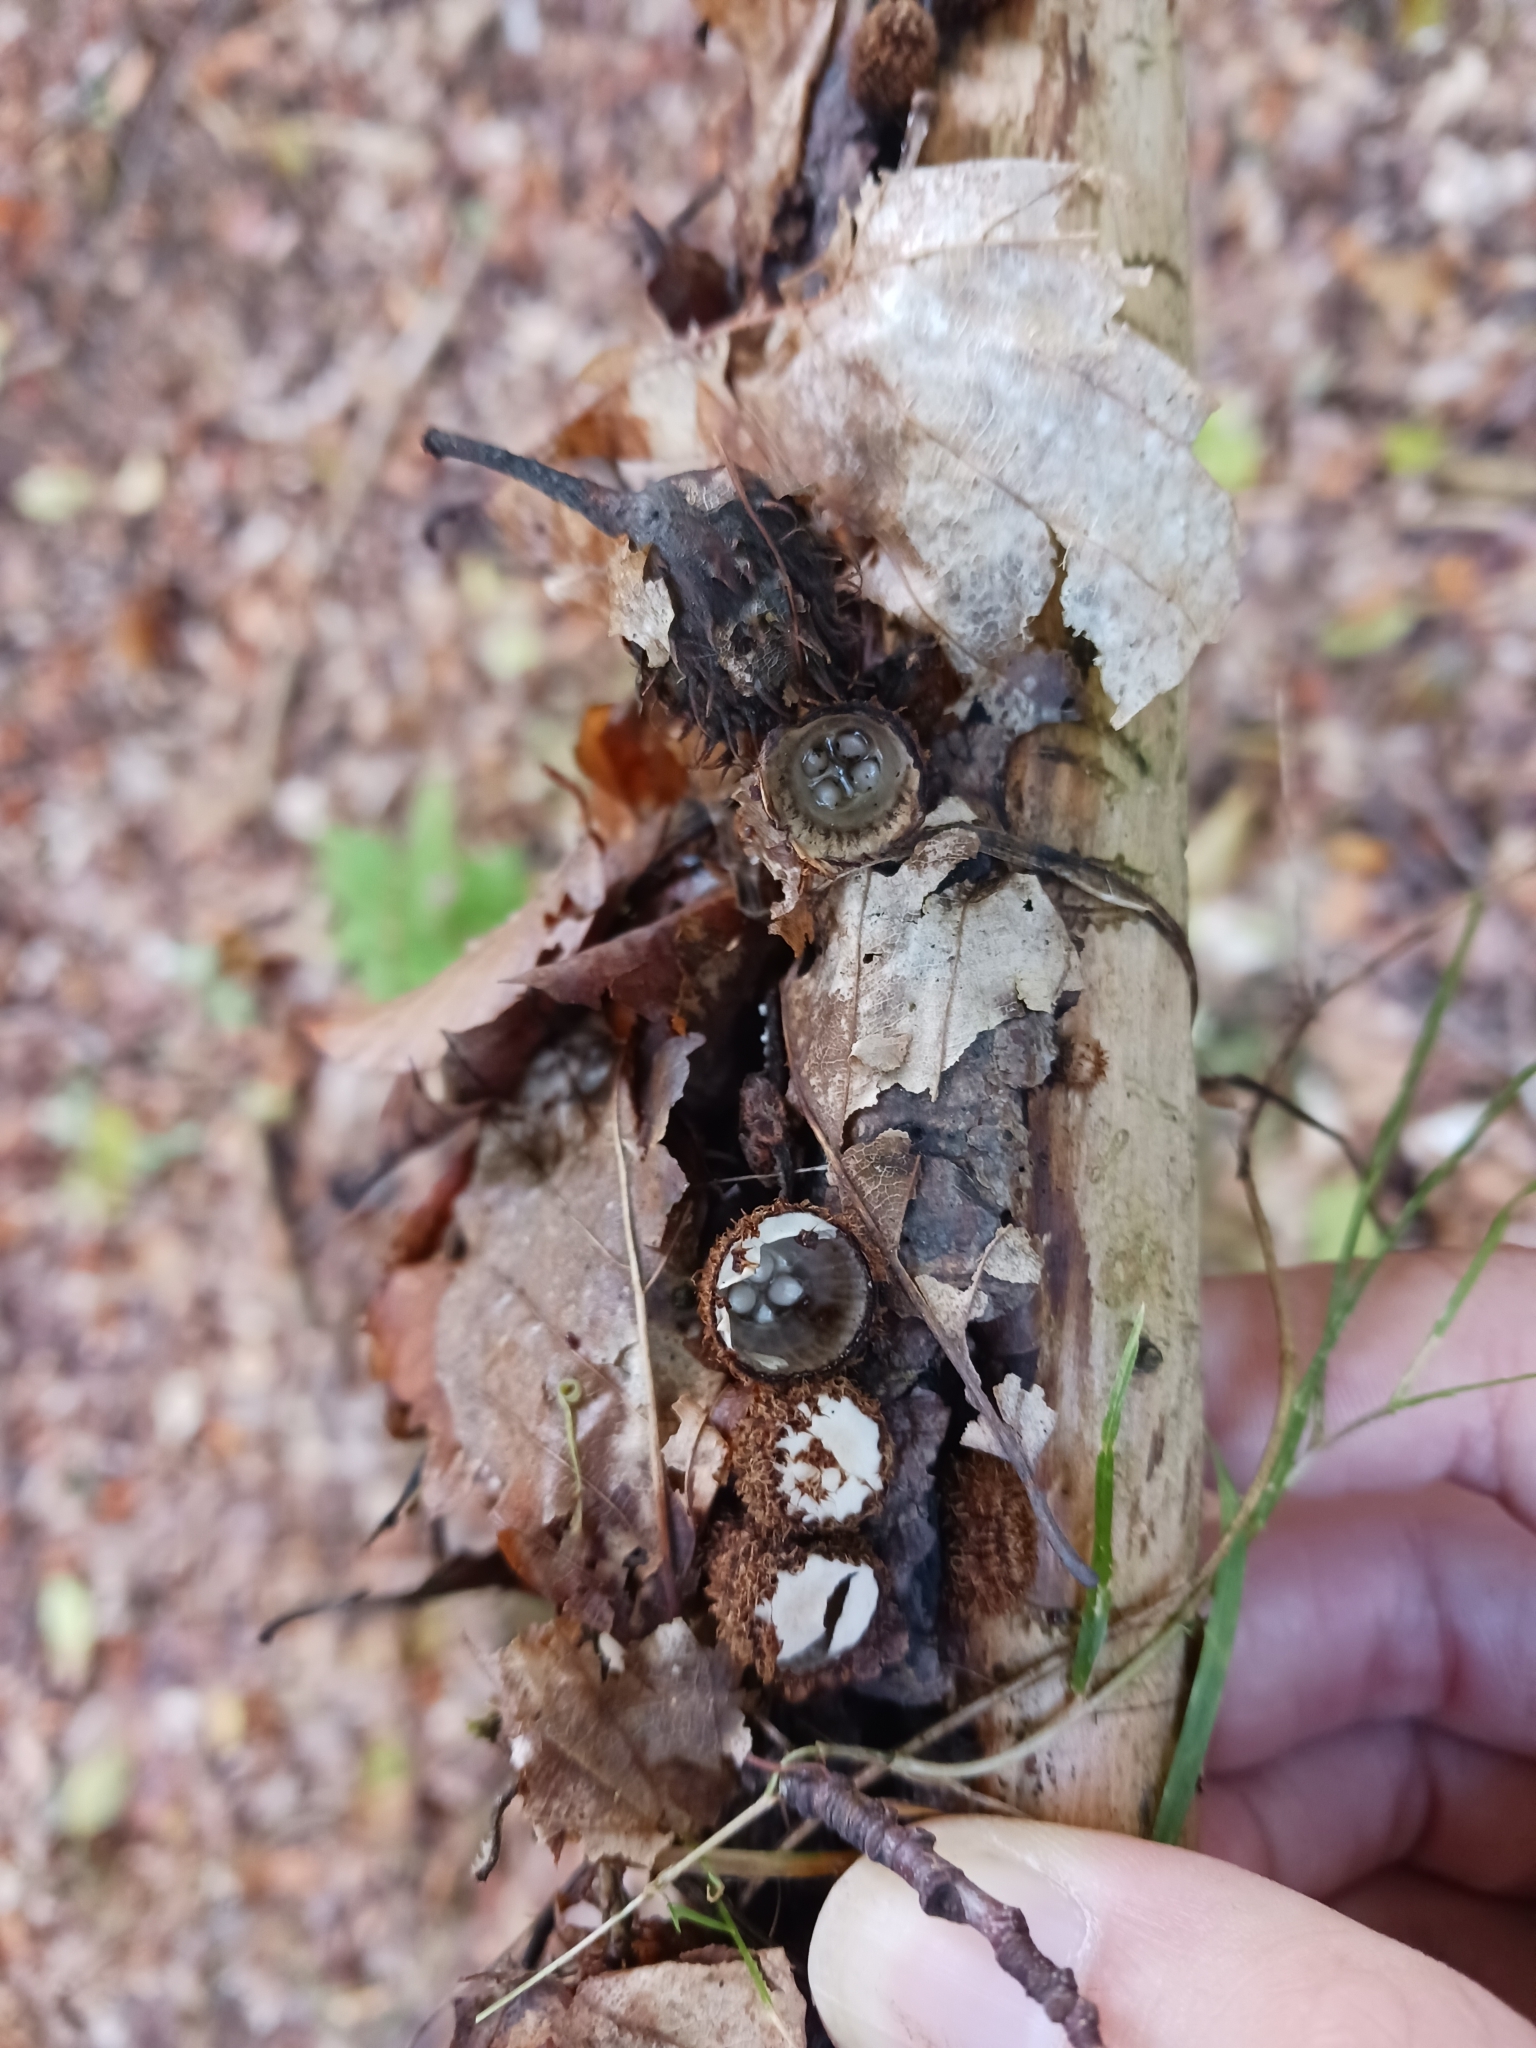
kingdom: Fungi
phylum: Basidiomycota
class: Agaricomycetes
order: Agaricales
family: Agaricaceae
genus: Cyathus
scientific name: Cyathus striatus
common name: Fluted bird's nest
